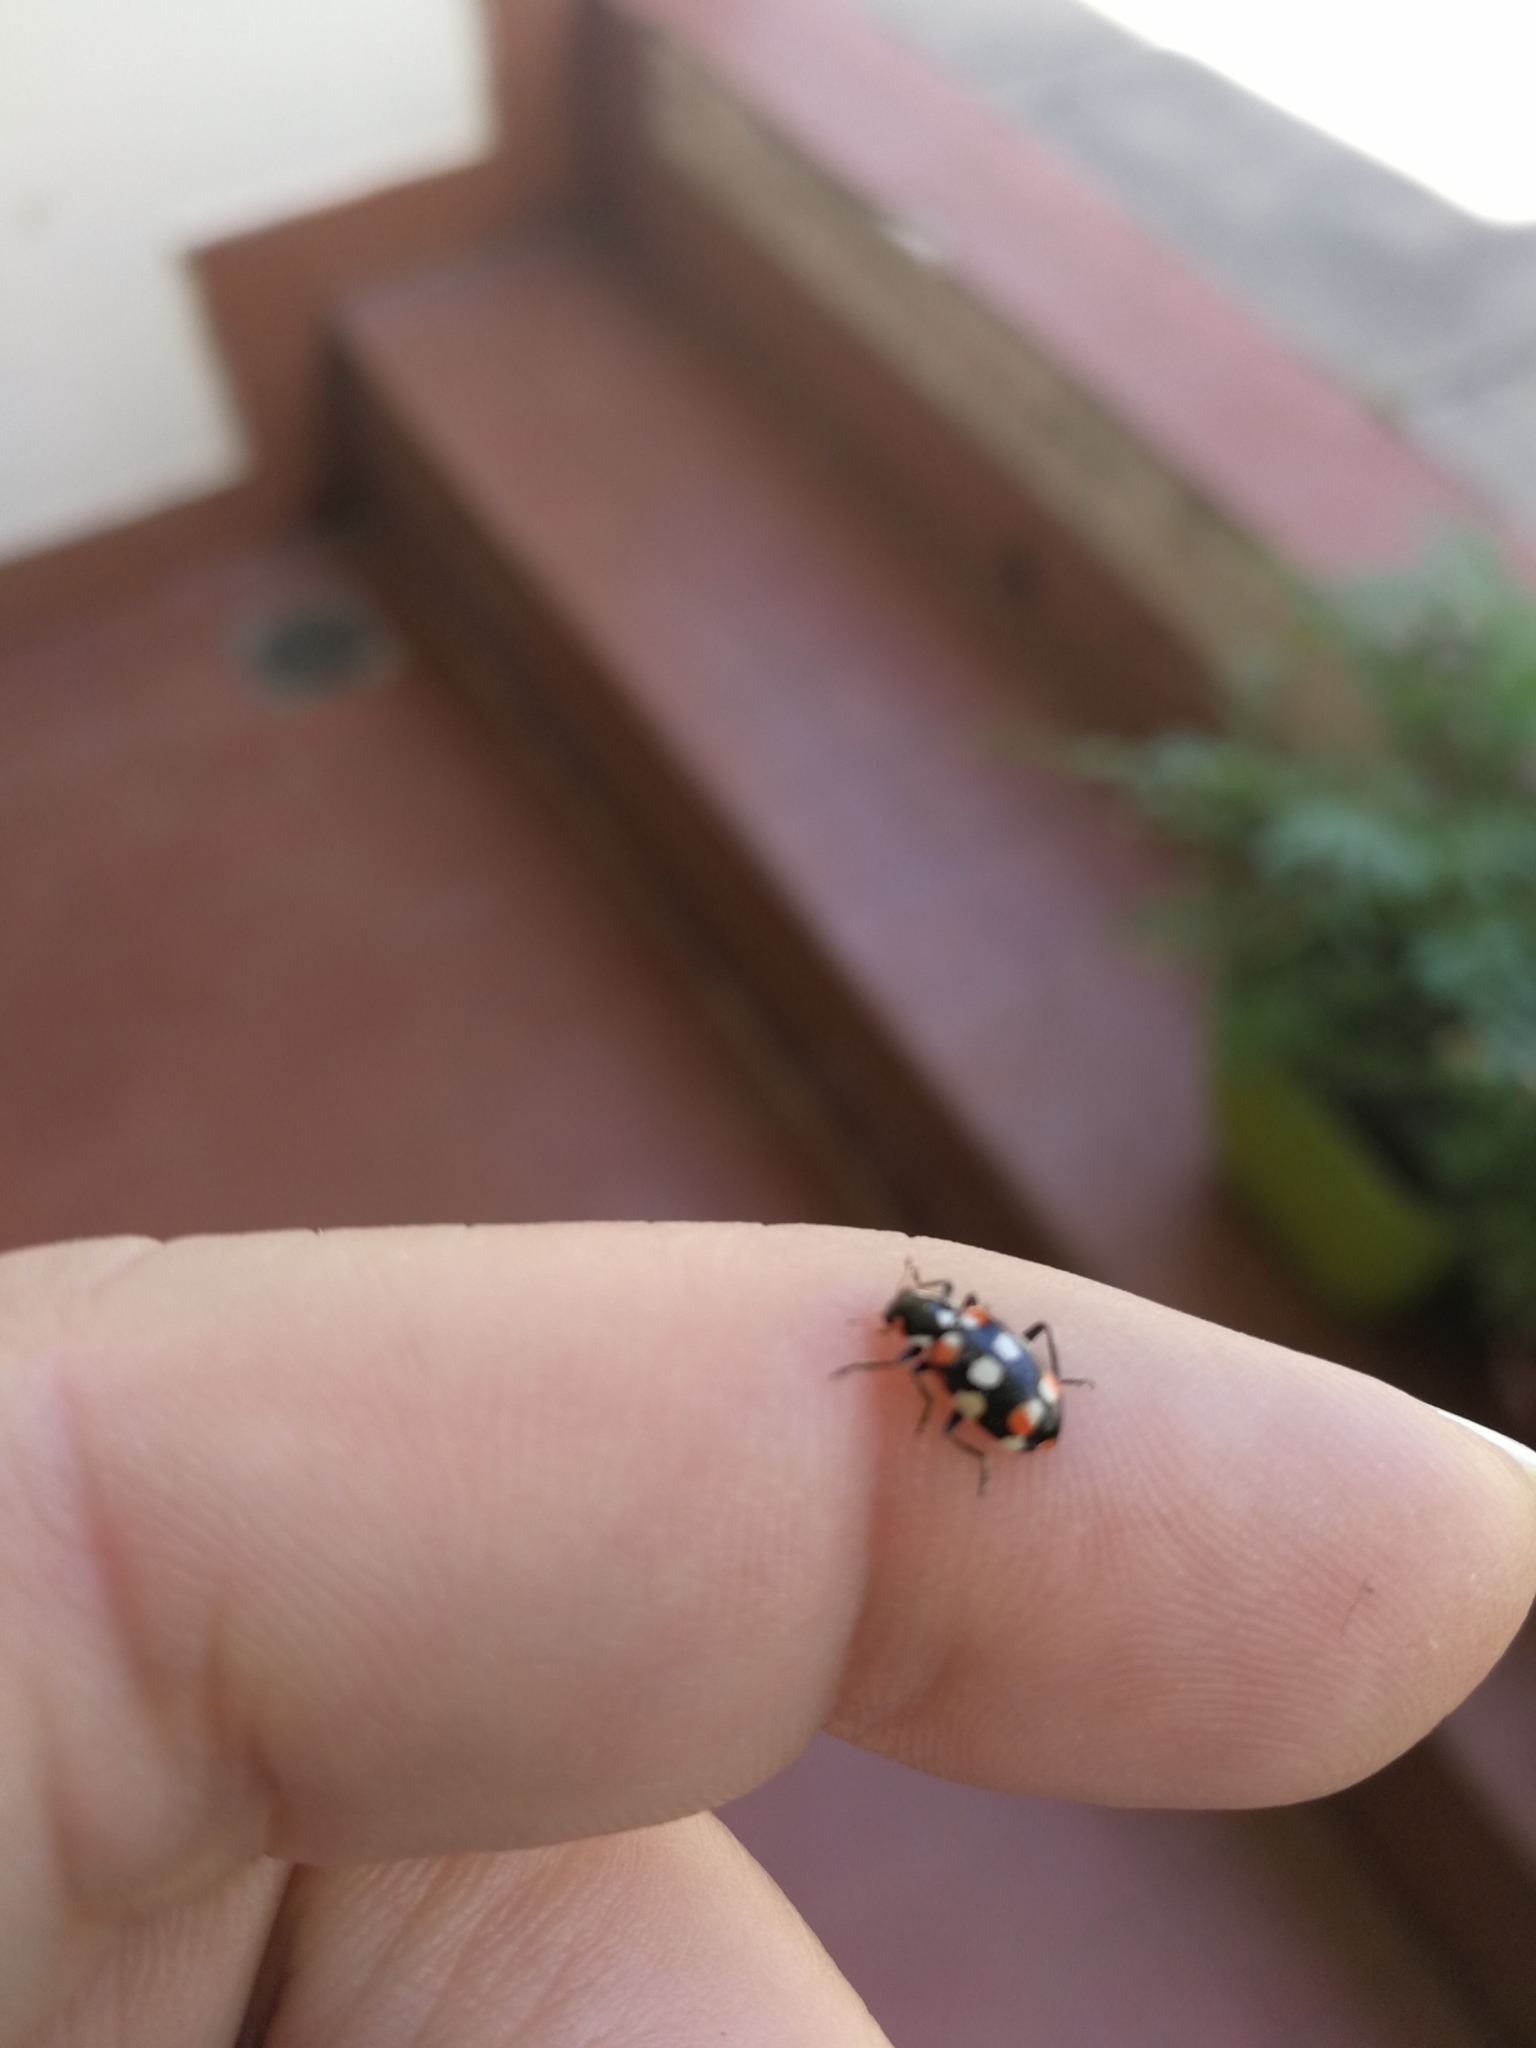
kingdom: Animalia
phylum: Arthropoda
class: Insecta
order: Coleoptera
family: Coccinellidae
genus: Eriopis
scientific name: Eriopis connexa
